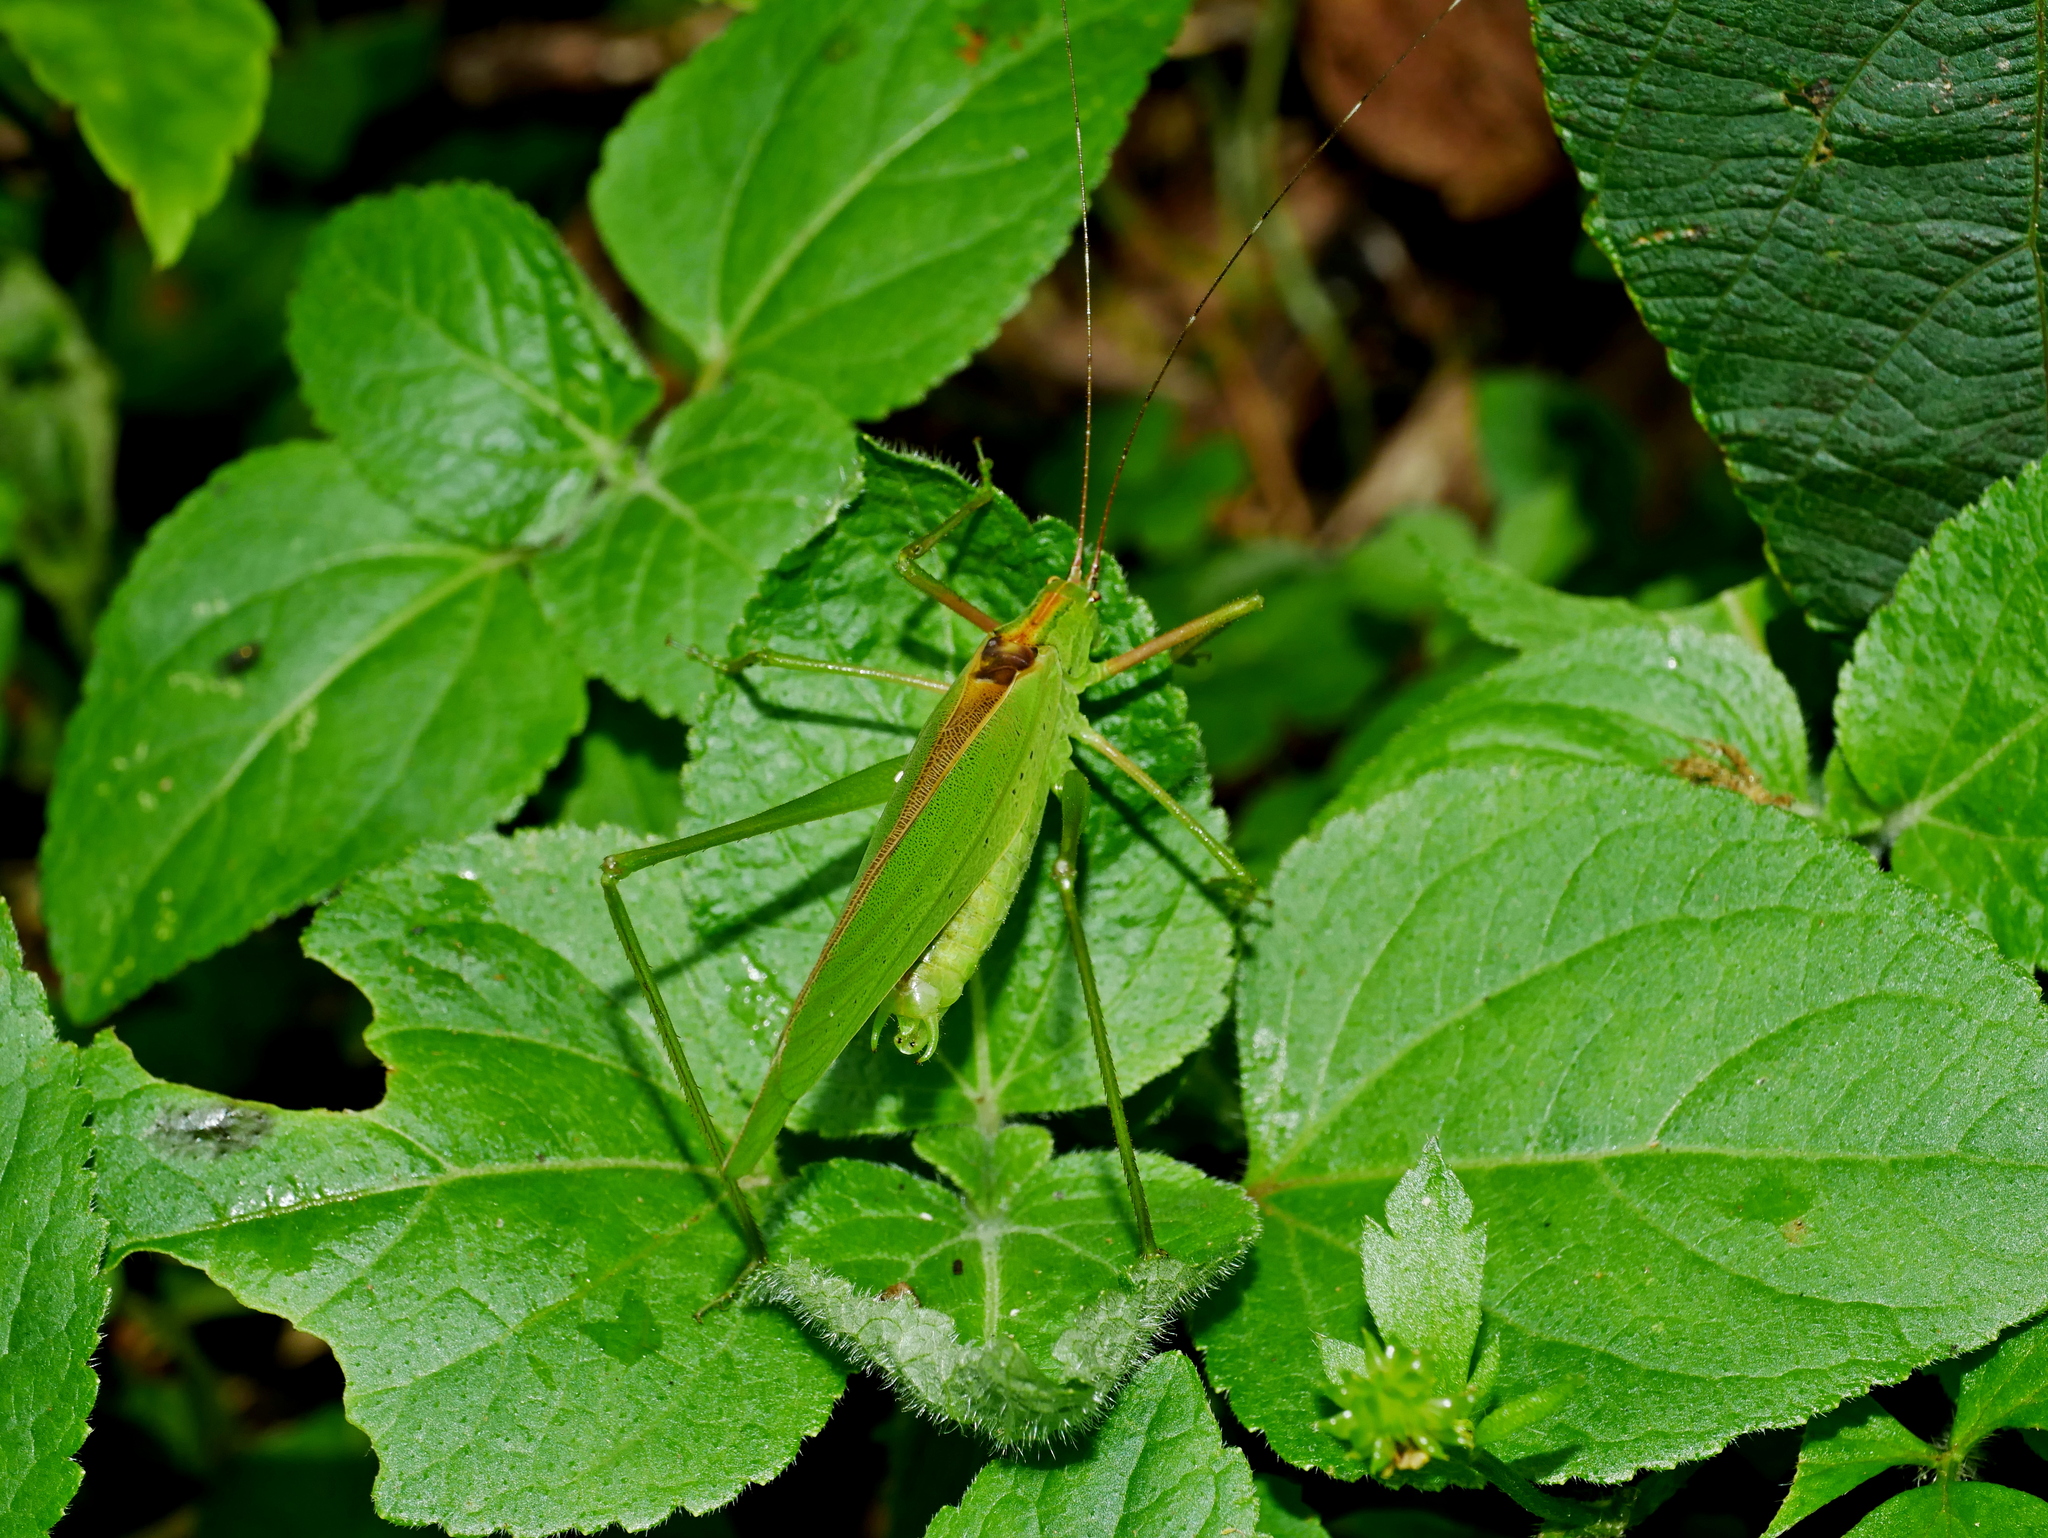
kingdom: Animalia
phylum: Arthropoda
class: Insecta
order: Orthoptera
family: Tettigoniidae
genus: Ducetia
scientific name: Ducetia japonica
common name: Pacific ducetia
